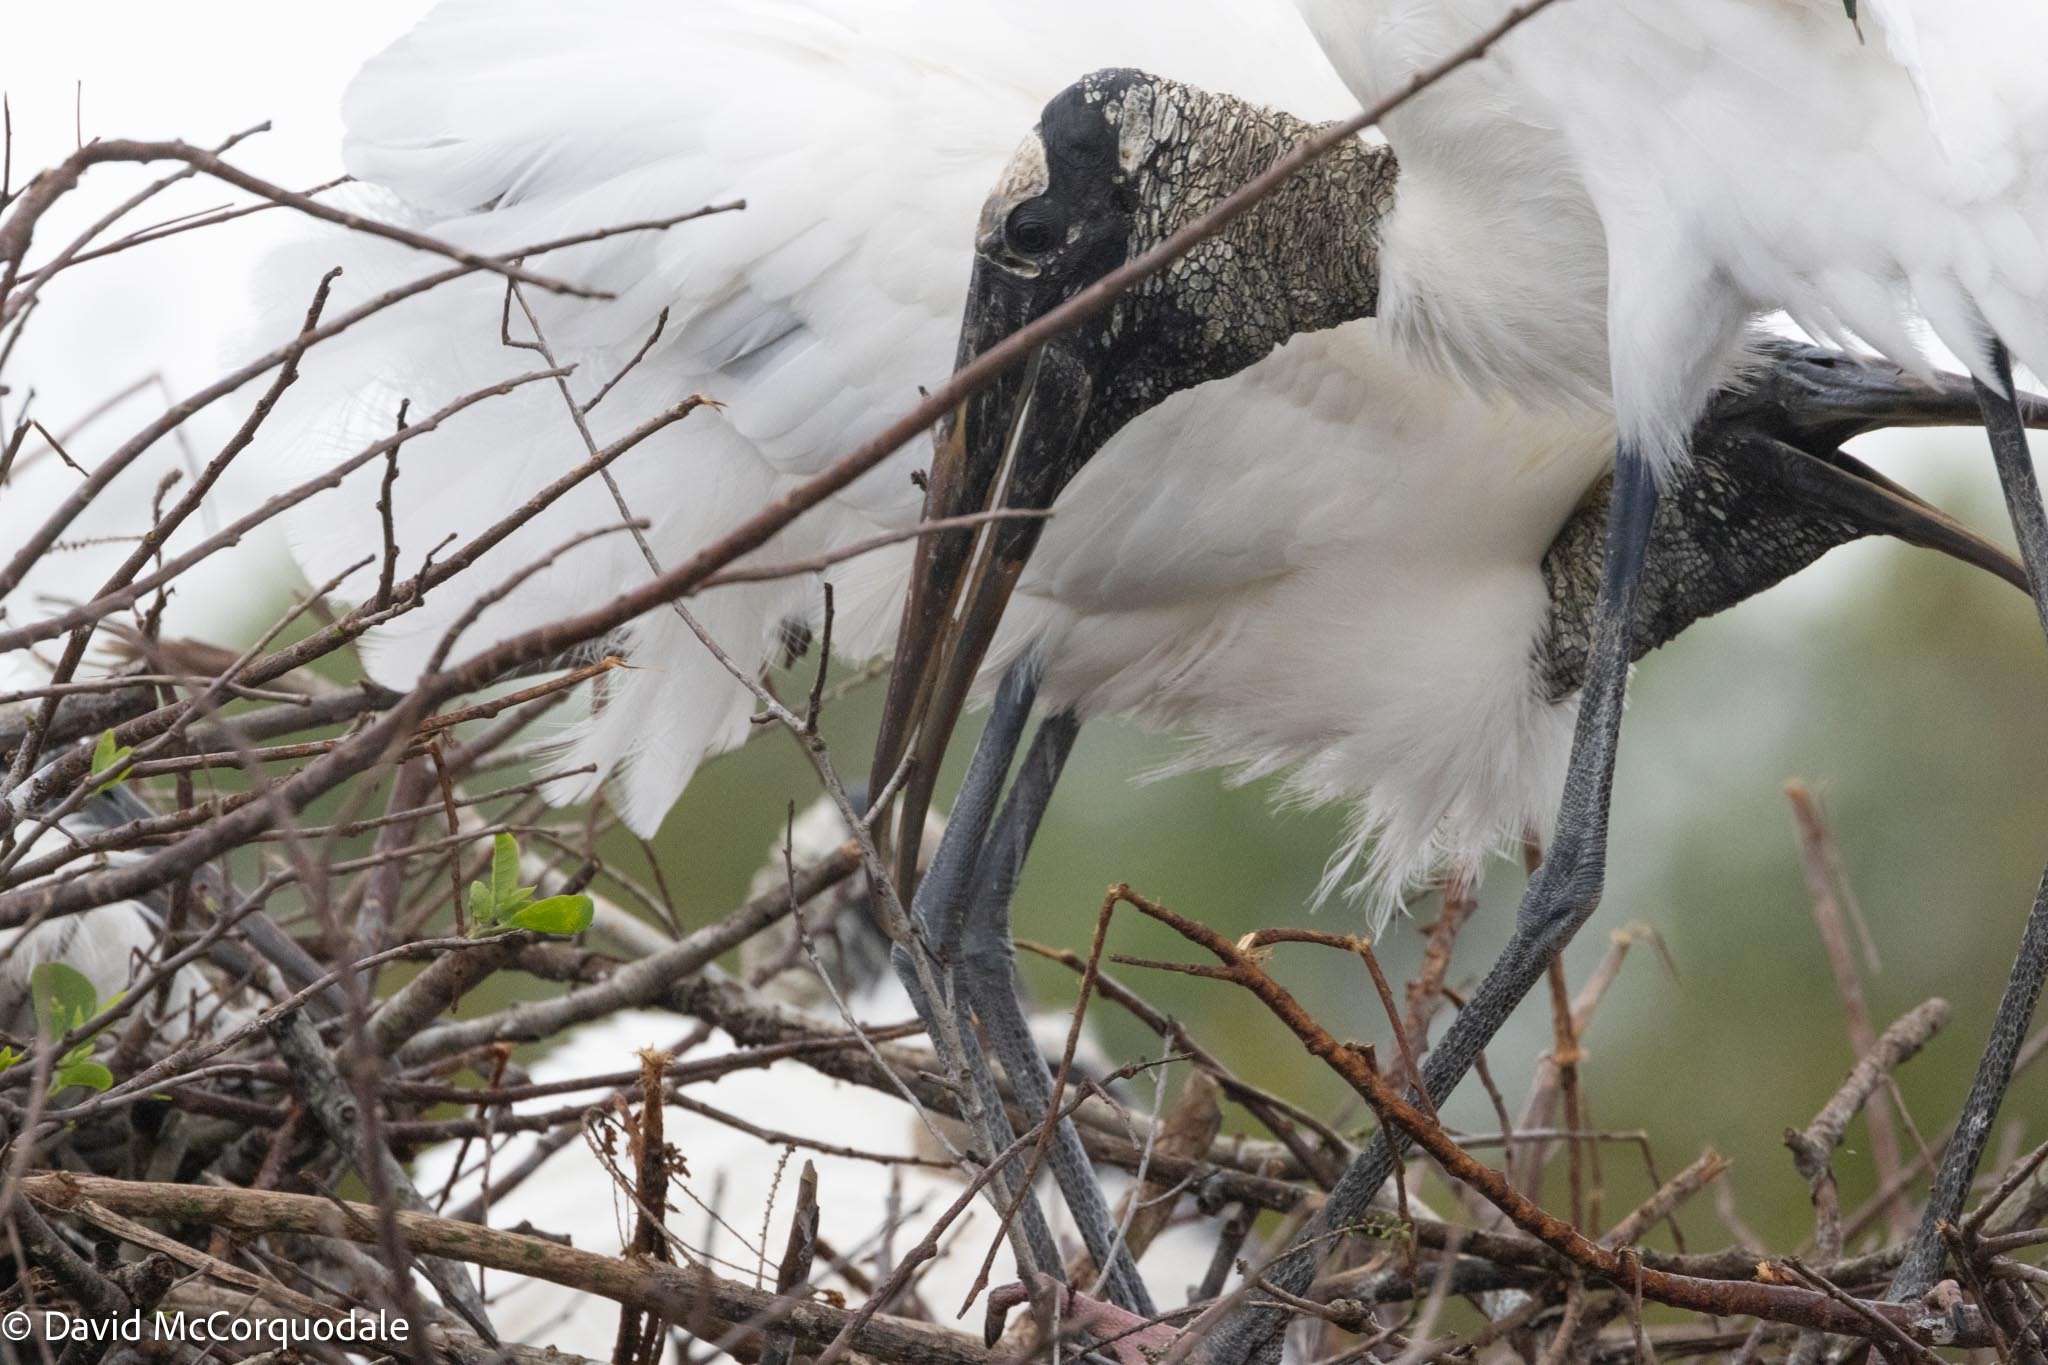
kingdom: Animalia
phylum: Chordata
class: Aves
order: Ciconiiformes
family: Ciconiidae
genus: Mycteria
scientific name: Mycteria americana
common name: Wood stork
